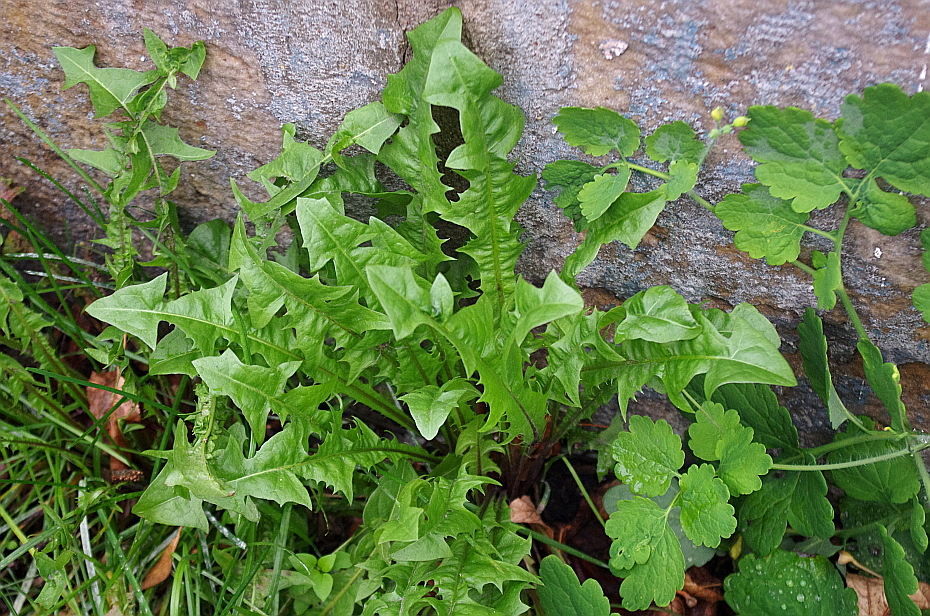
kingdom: Plantae
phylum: Tracheophyta
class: Magnoliopsida
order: Asterales
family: Asteraceae
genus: Taraxacum
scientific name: Taraxacum officinale
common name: Common dandelion
